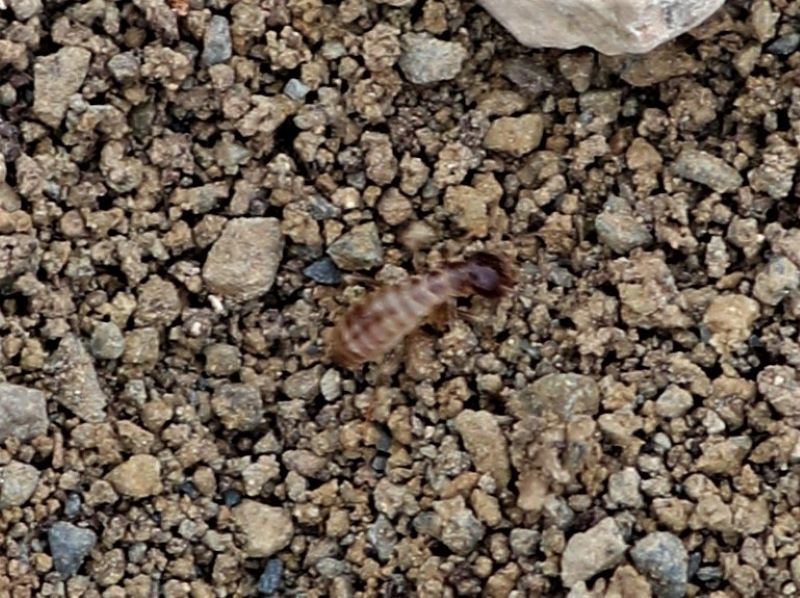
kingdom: Animalia
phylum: Arthropoda
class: Insecta
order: Blattodea
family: Hodotermitidae
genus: Hodotermes
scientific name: Hodotermes mossambicus
